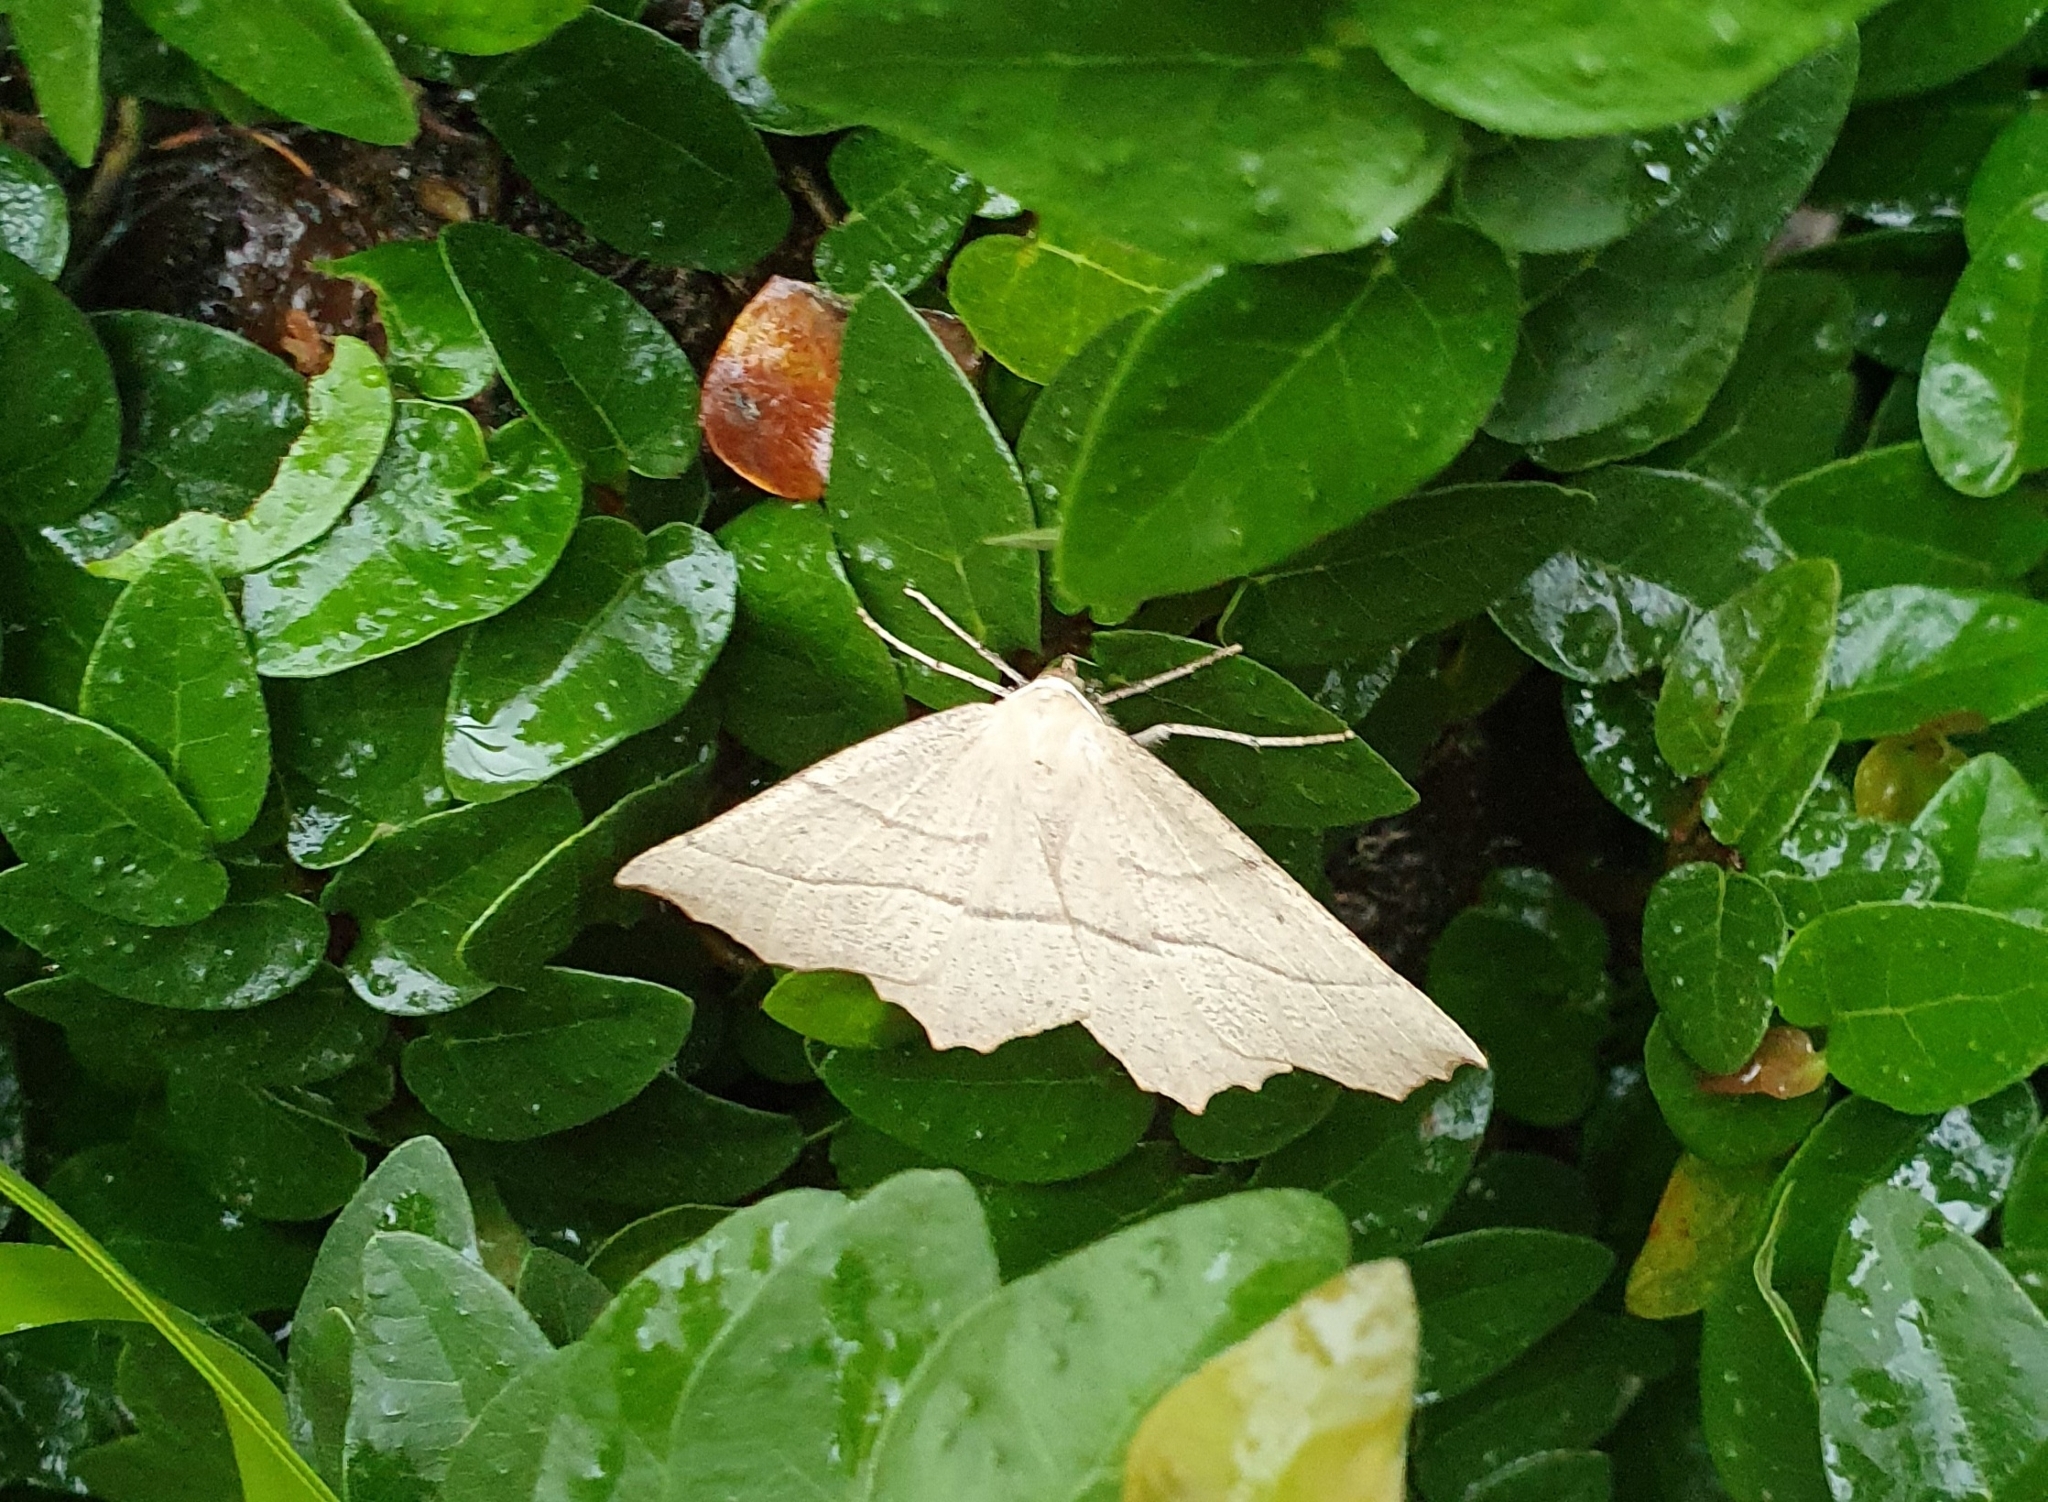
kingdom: Animalia
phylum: Arthropoda
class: Insecta
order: Lepidoptera
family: Geometridae
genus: Gerinia
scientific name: Gerinia honoraria
